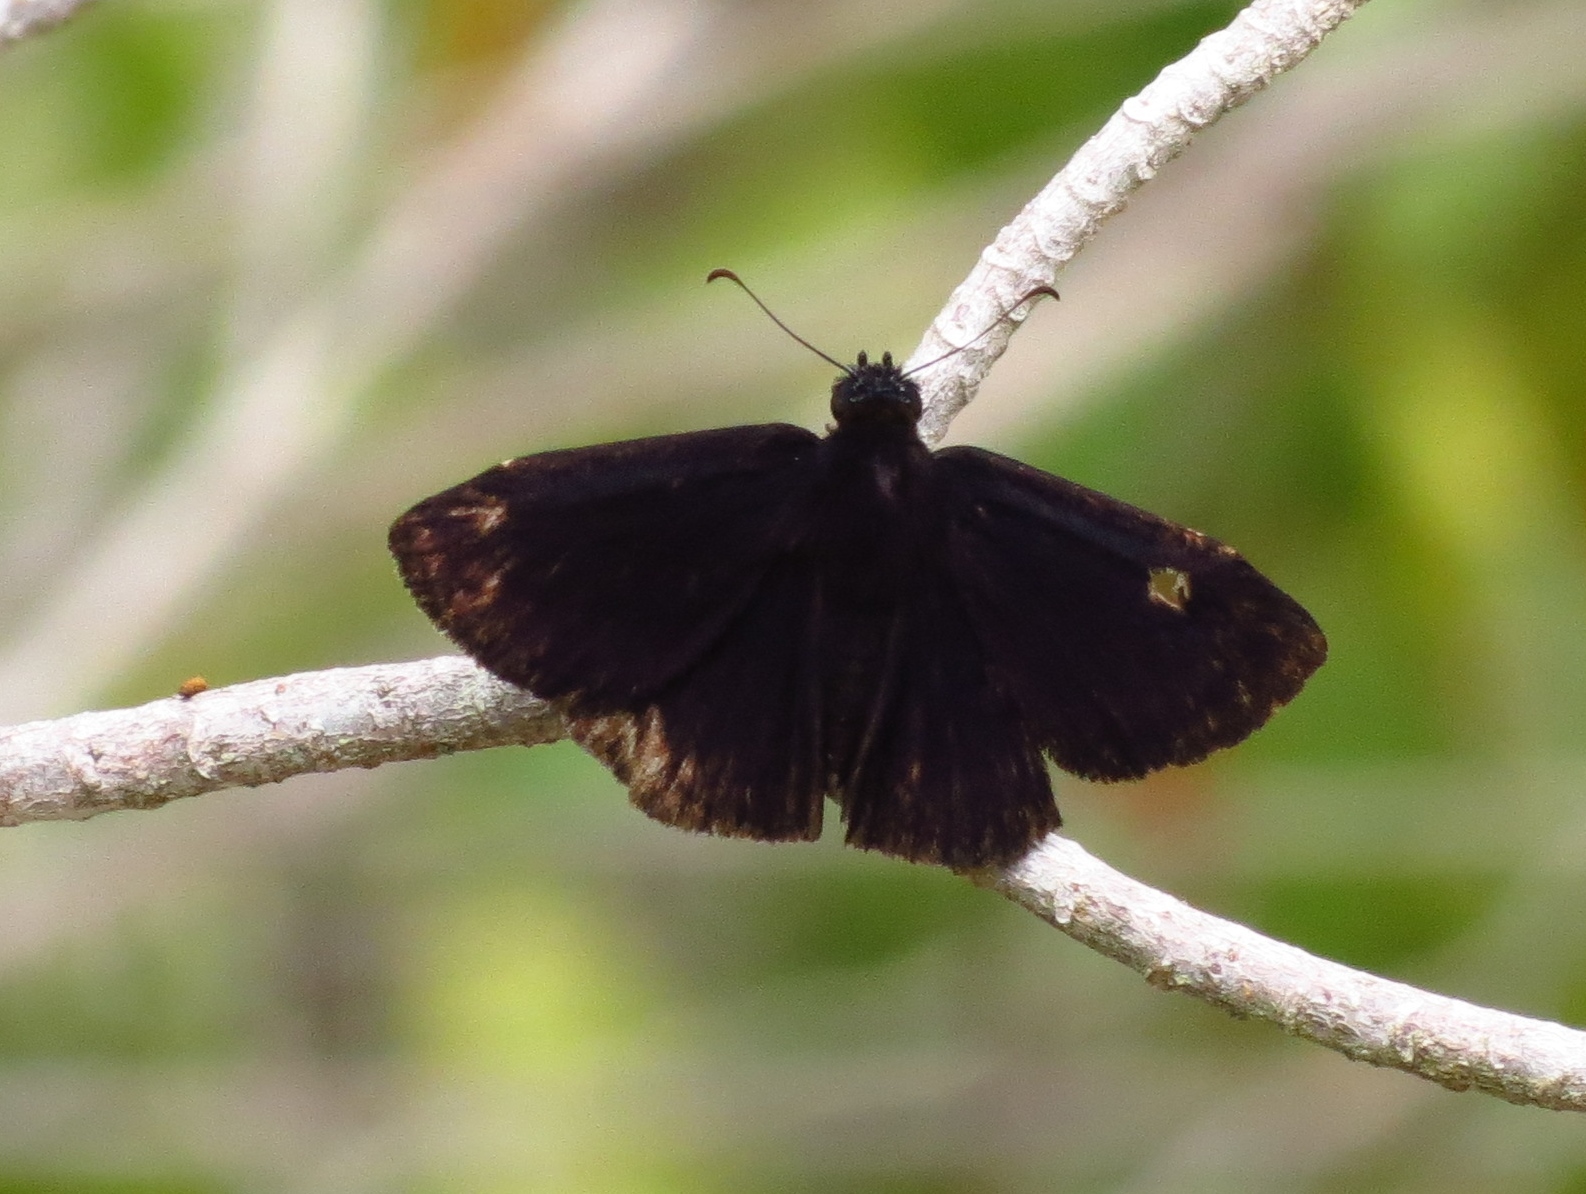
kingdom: Animalia
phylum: Arthropoda
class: Insecta
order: Lepidoptera
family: Hesperiidae
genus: Ephyriades
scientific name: Ephyriades arcas
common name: Caribbean duskywing
